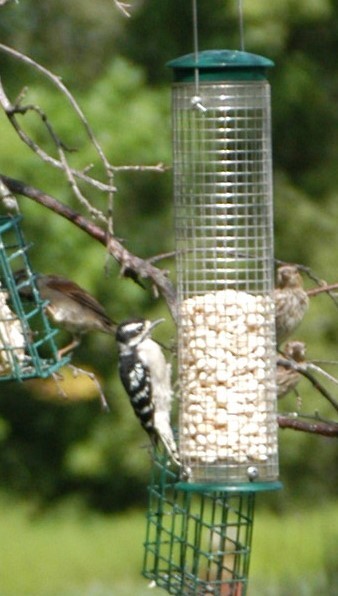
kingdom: Animalia
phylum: Chordata
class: Aves
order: Piciformes
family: Picidae
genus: Dryobates
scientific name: Dryobates pubescens
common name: Downy woodpecker
